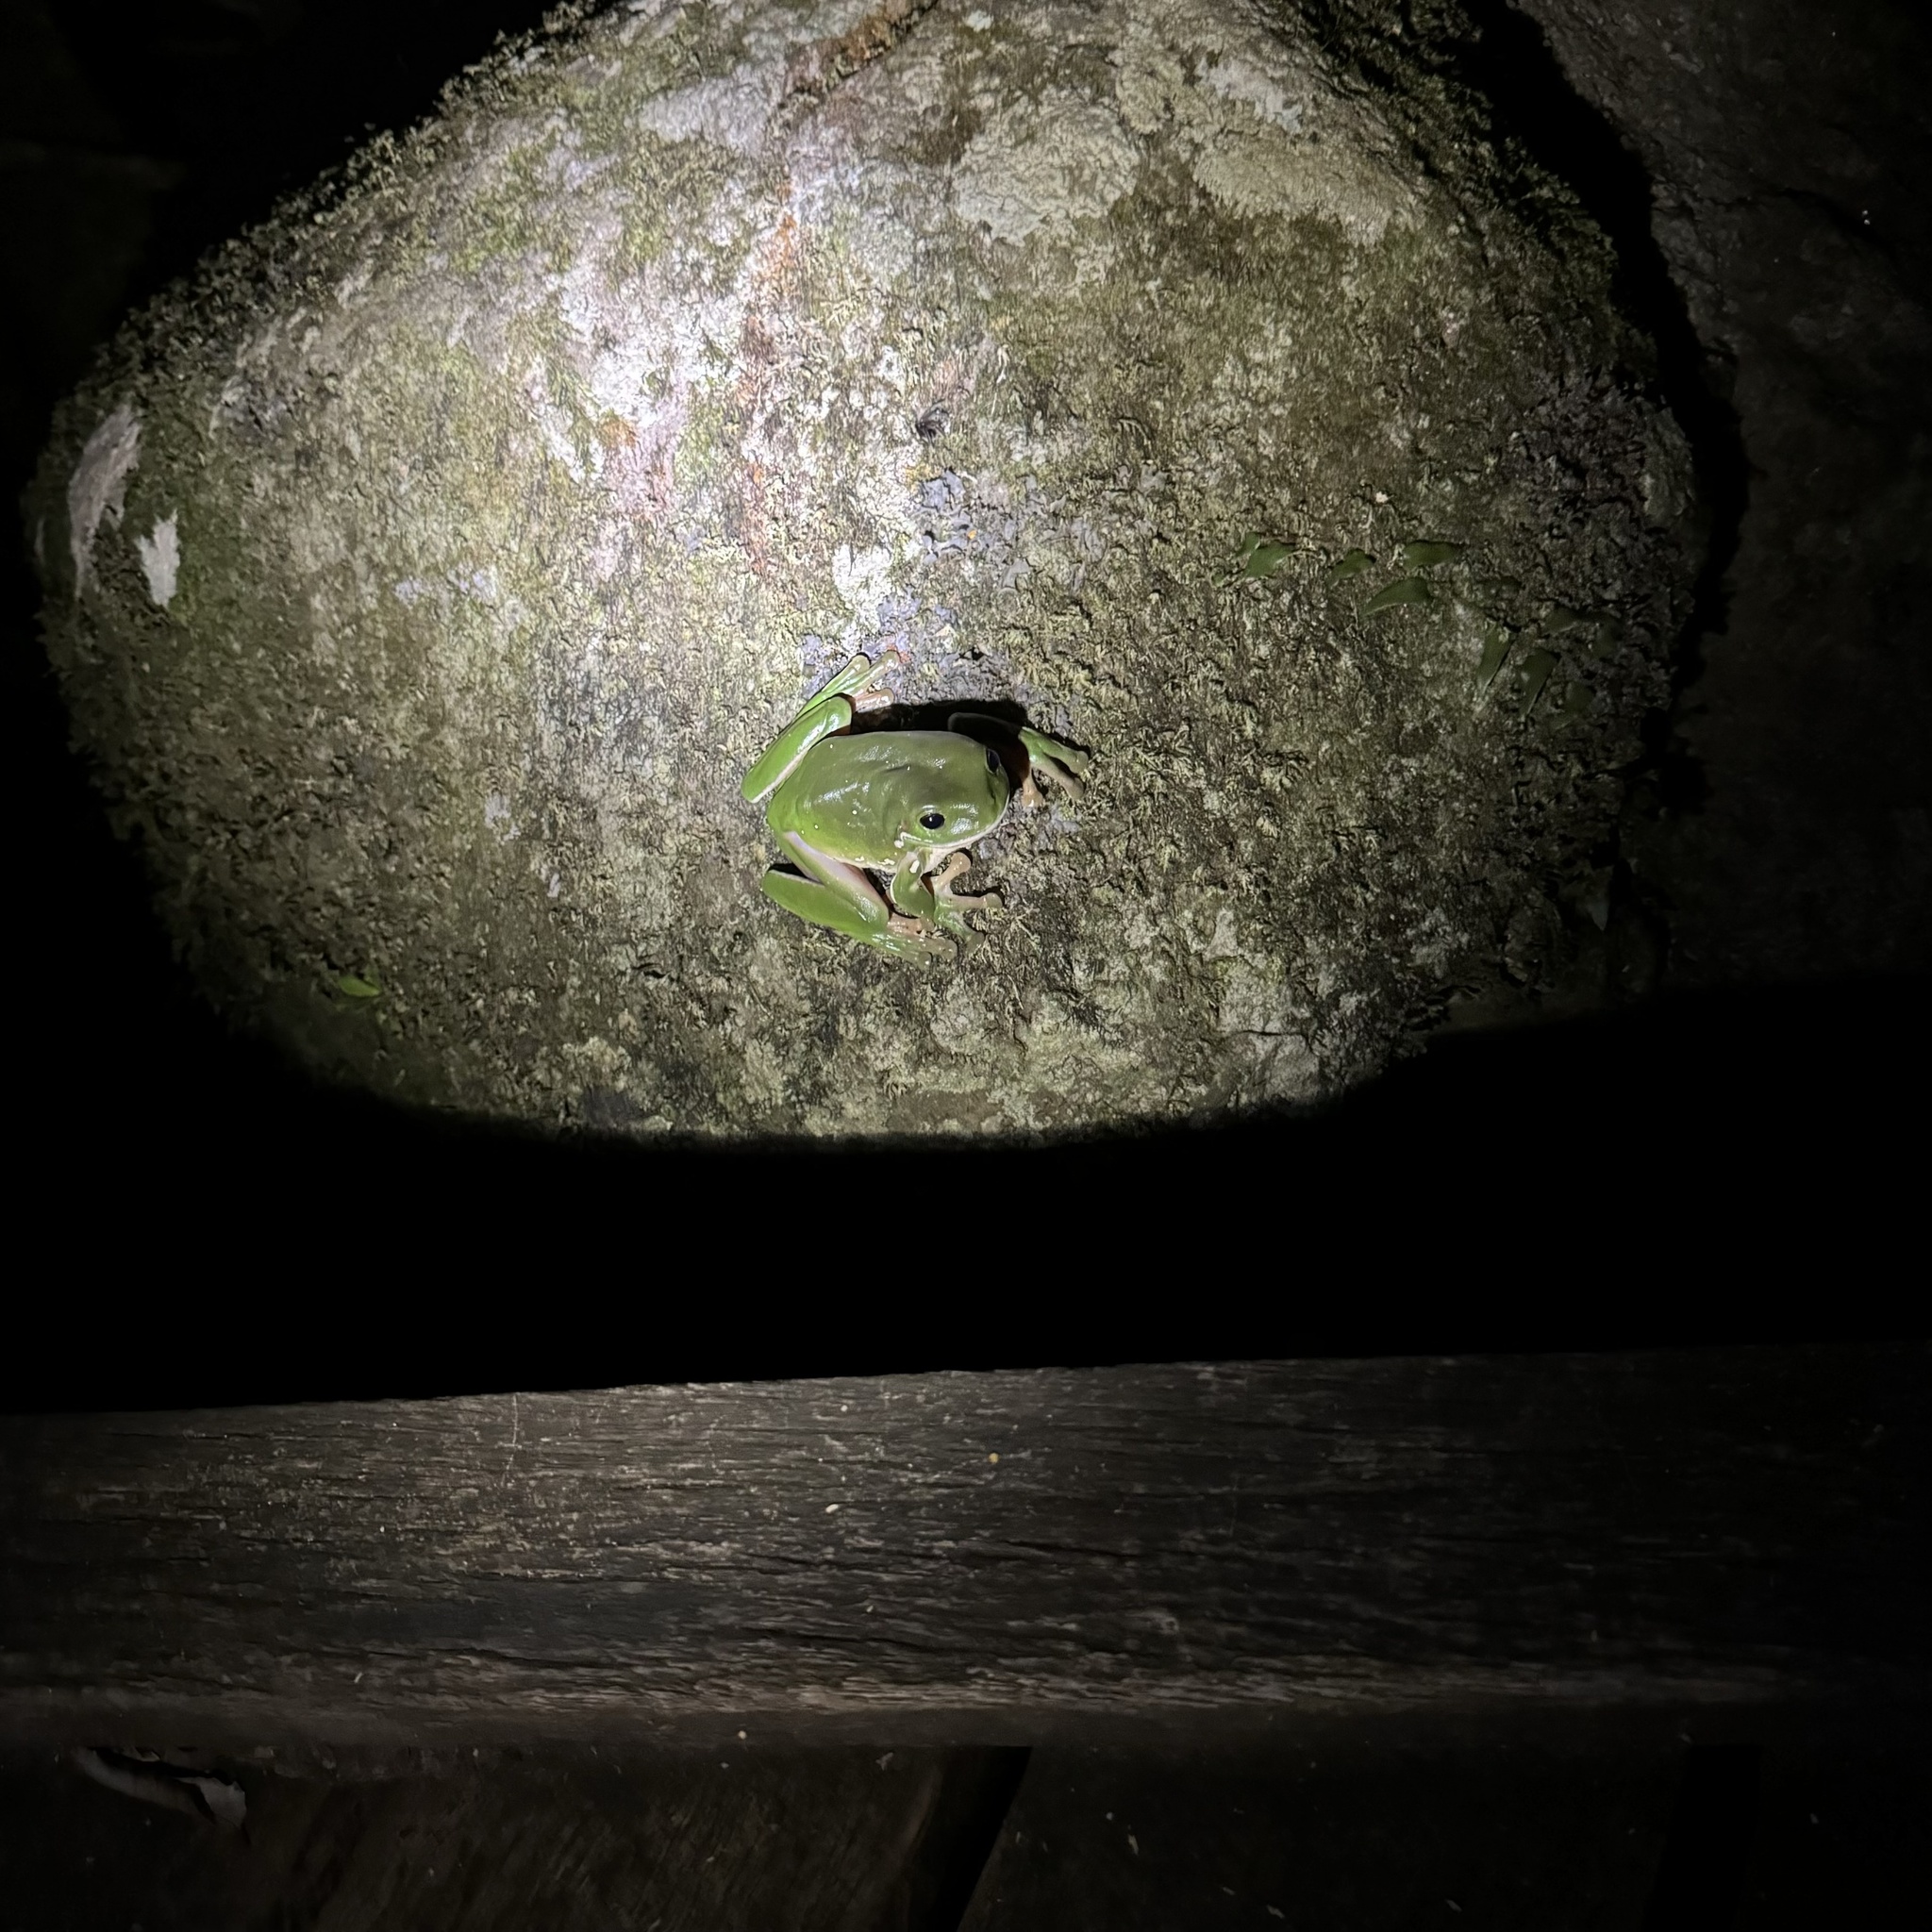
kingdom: Animalia
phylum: Chordata
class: Amphibia
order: Anura
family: Pelodryadidae
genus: Ranoidea
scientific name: Ranoidea caerulea
